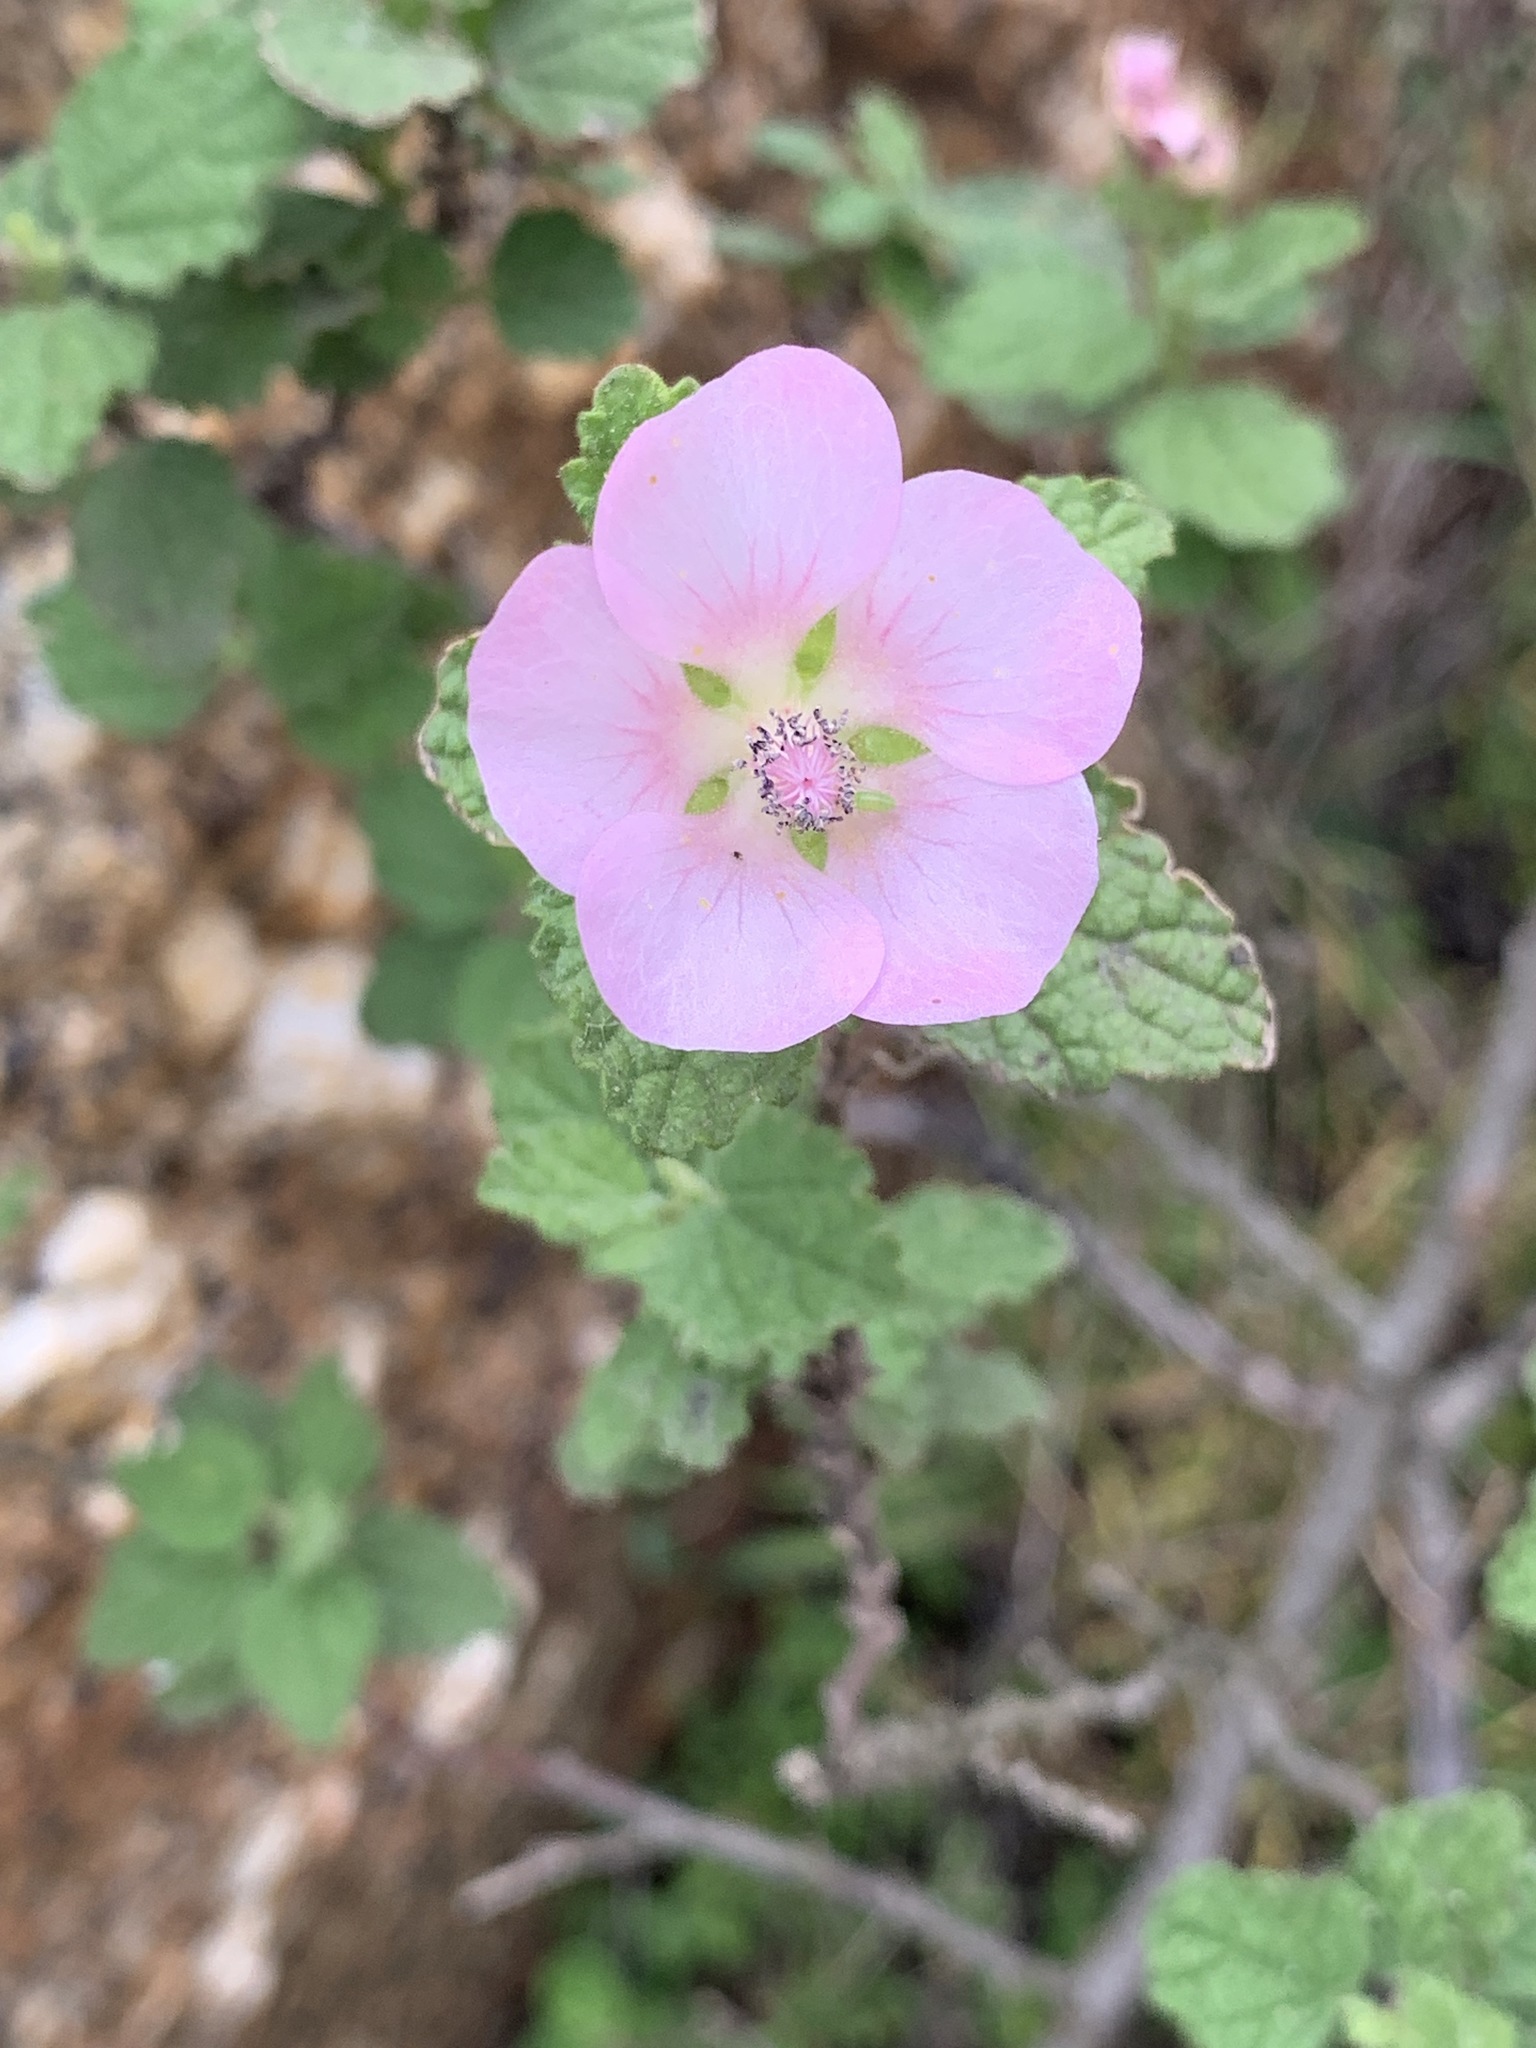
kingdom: Plantae
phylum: Tracheophyta
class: Magnoliopsida
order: Malvales
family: Malvaceae
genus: Anisodontea
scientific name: Anisodontea scabrosa
